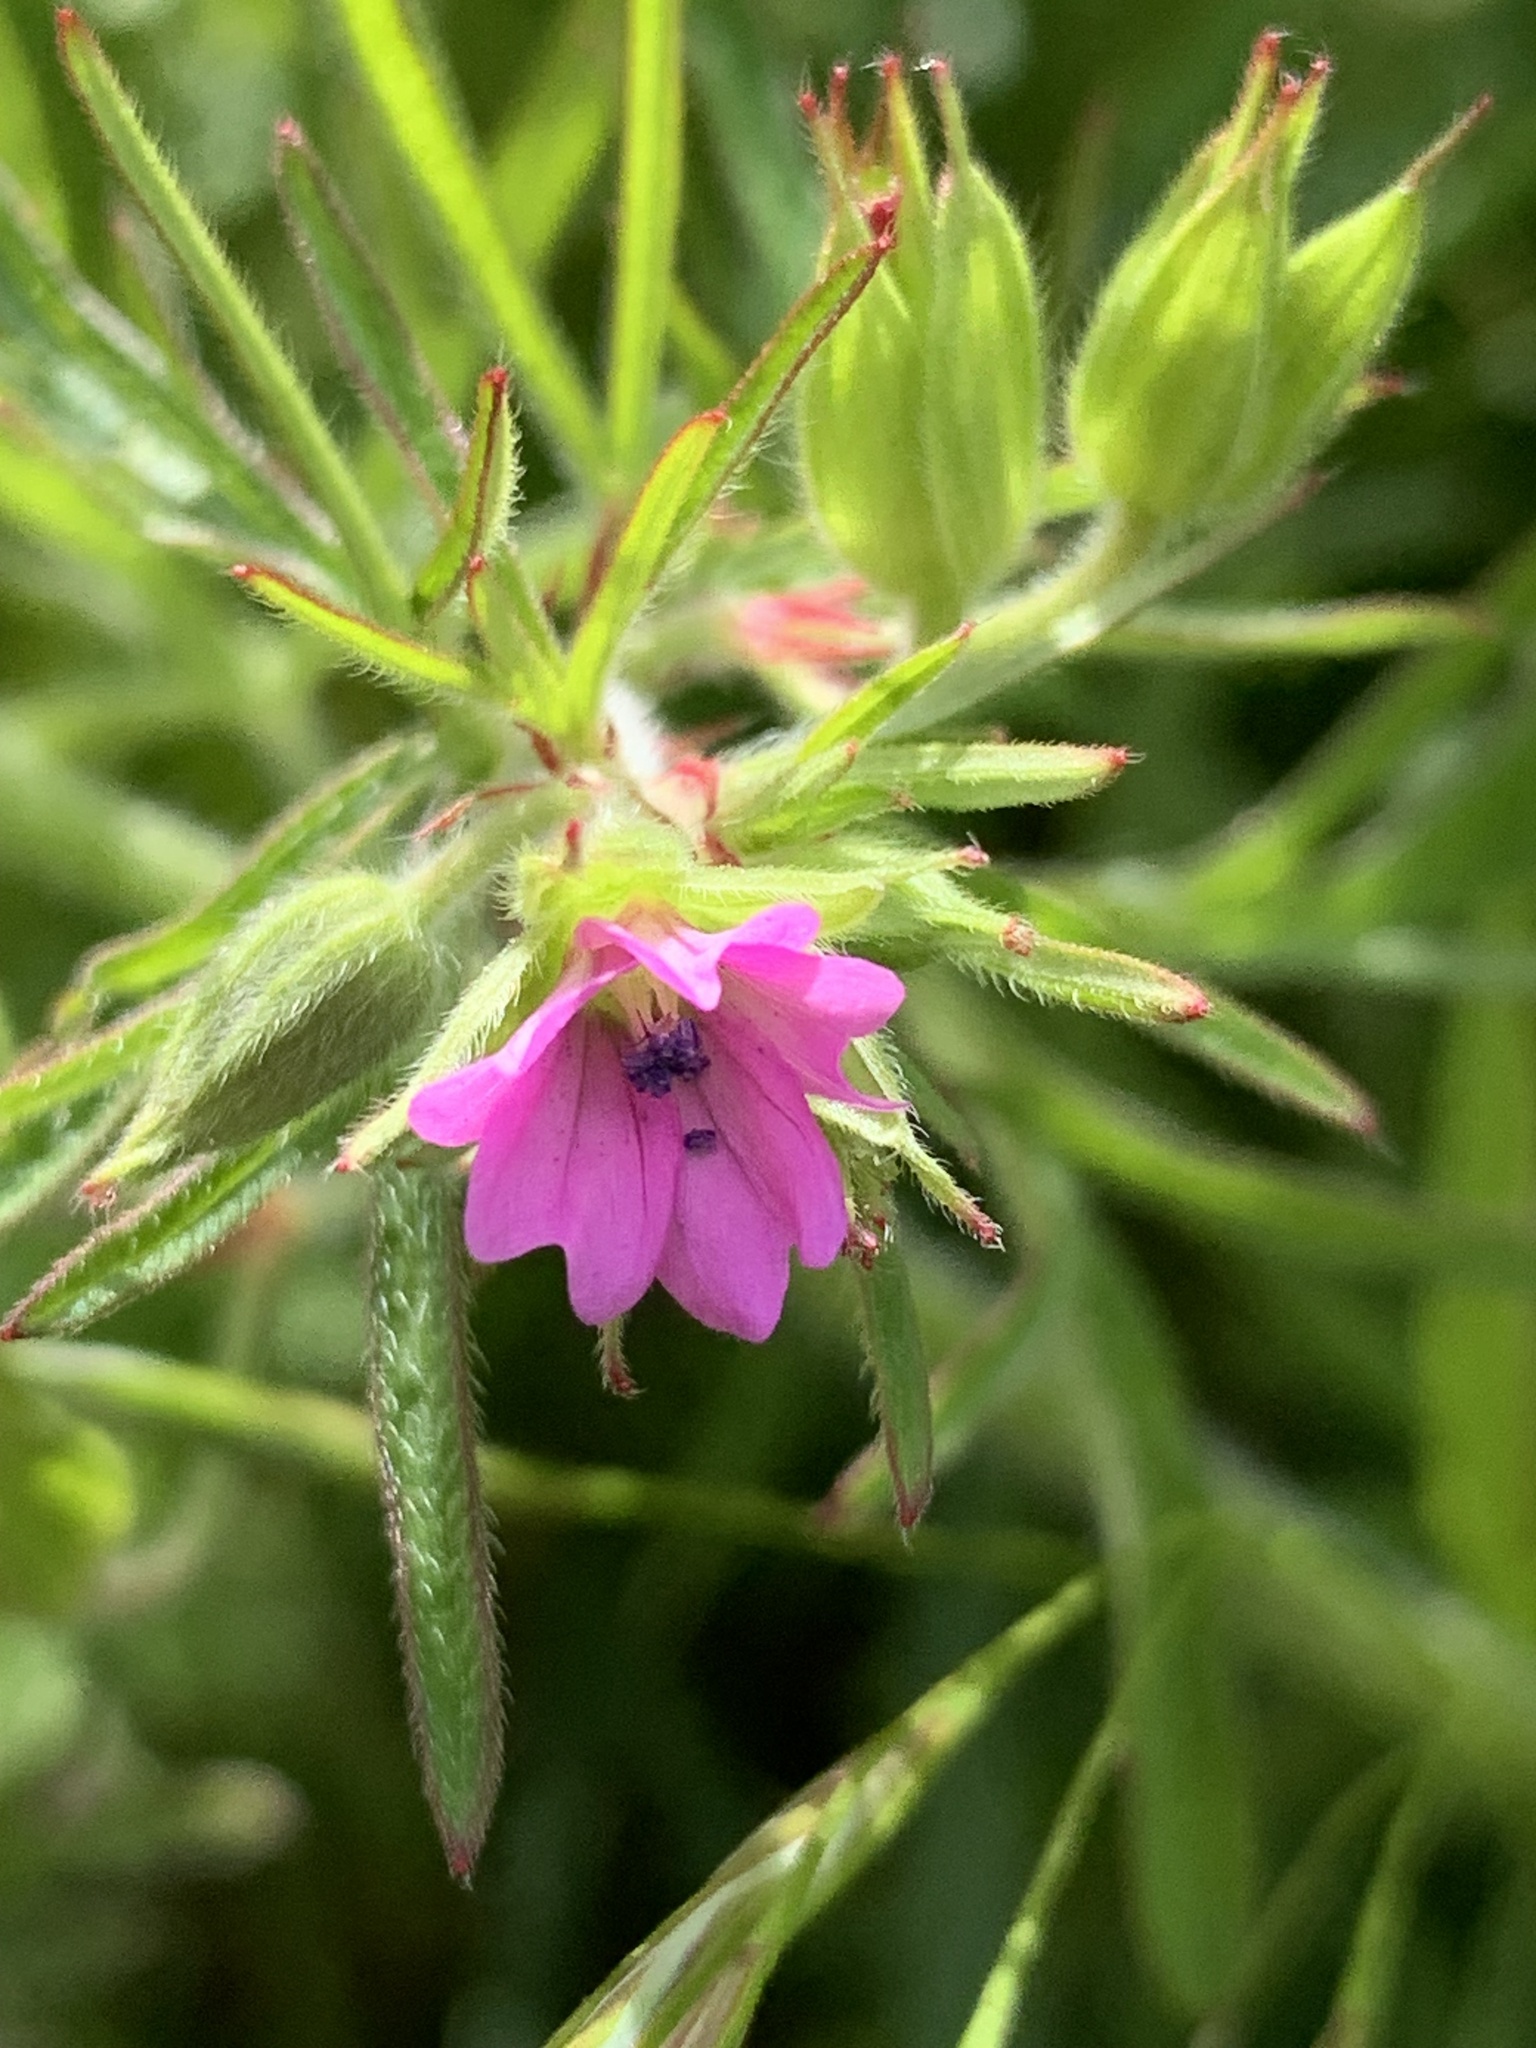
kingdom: Plantae
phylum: Tracheophyta
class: Magnoliopsida
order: Geraniales
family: Geraniaceae
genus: Geranium
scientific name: Geranium dissectum
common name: Cut-leaved crane's-bill
